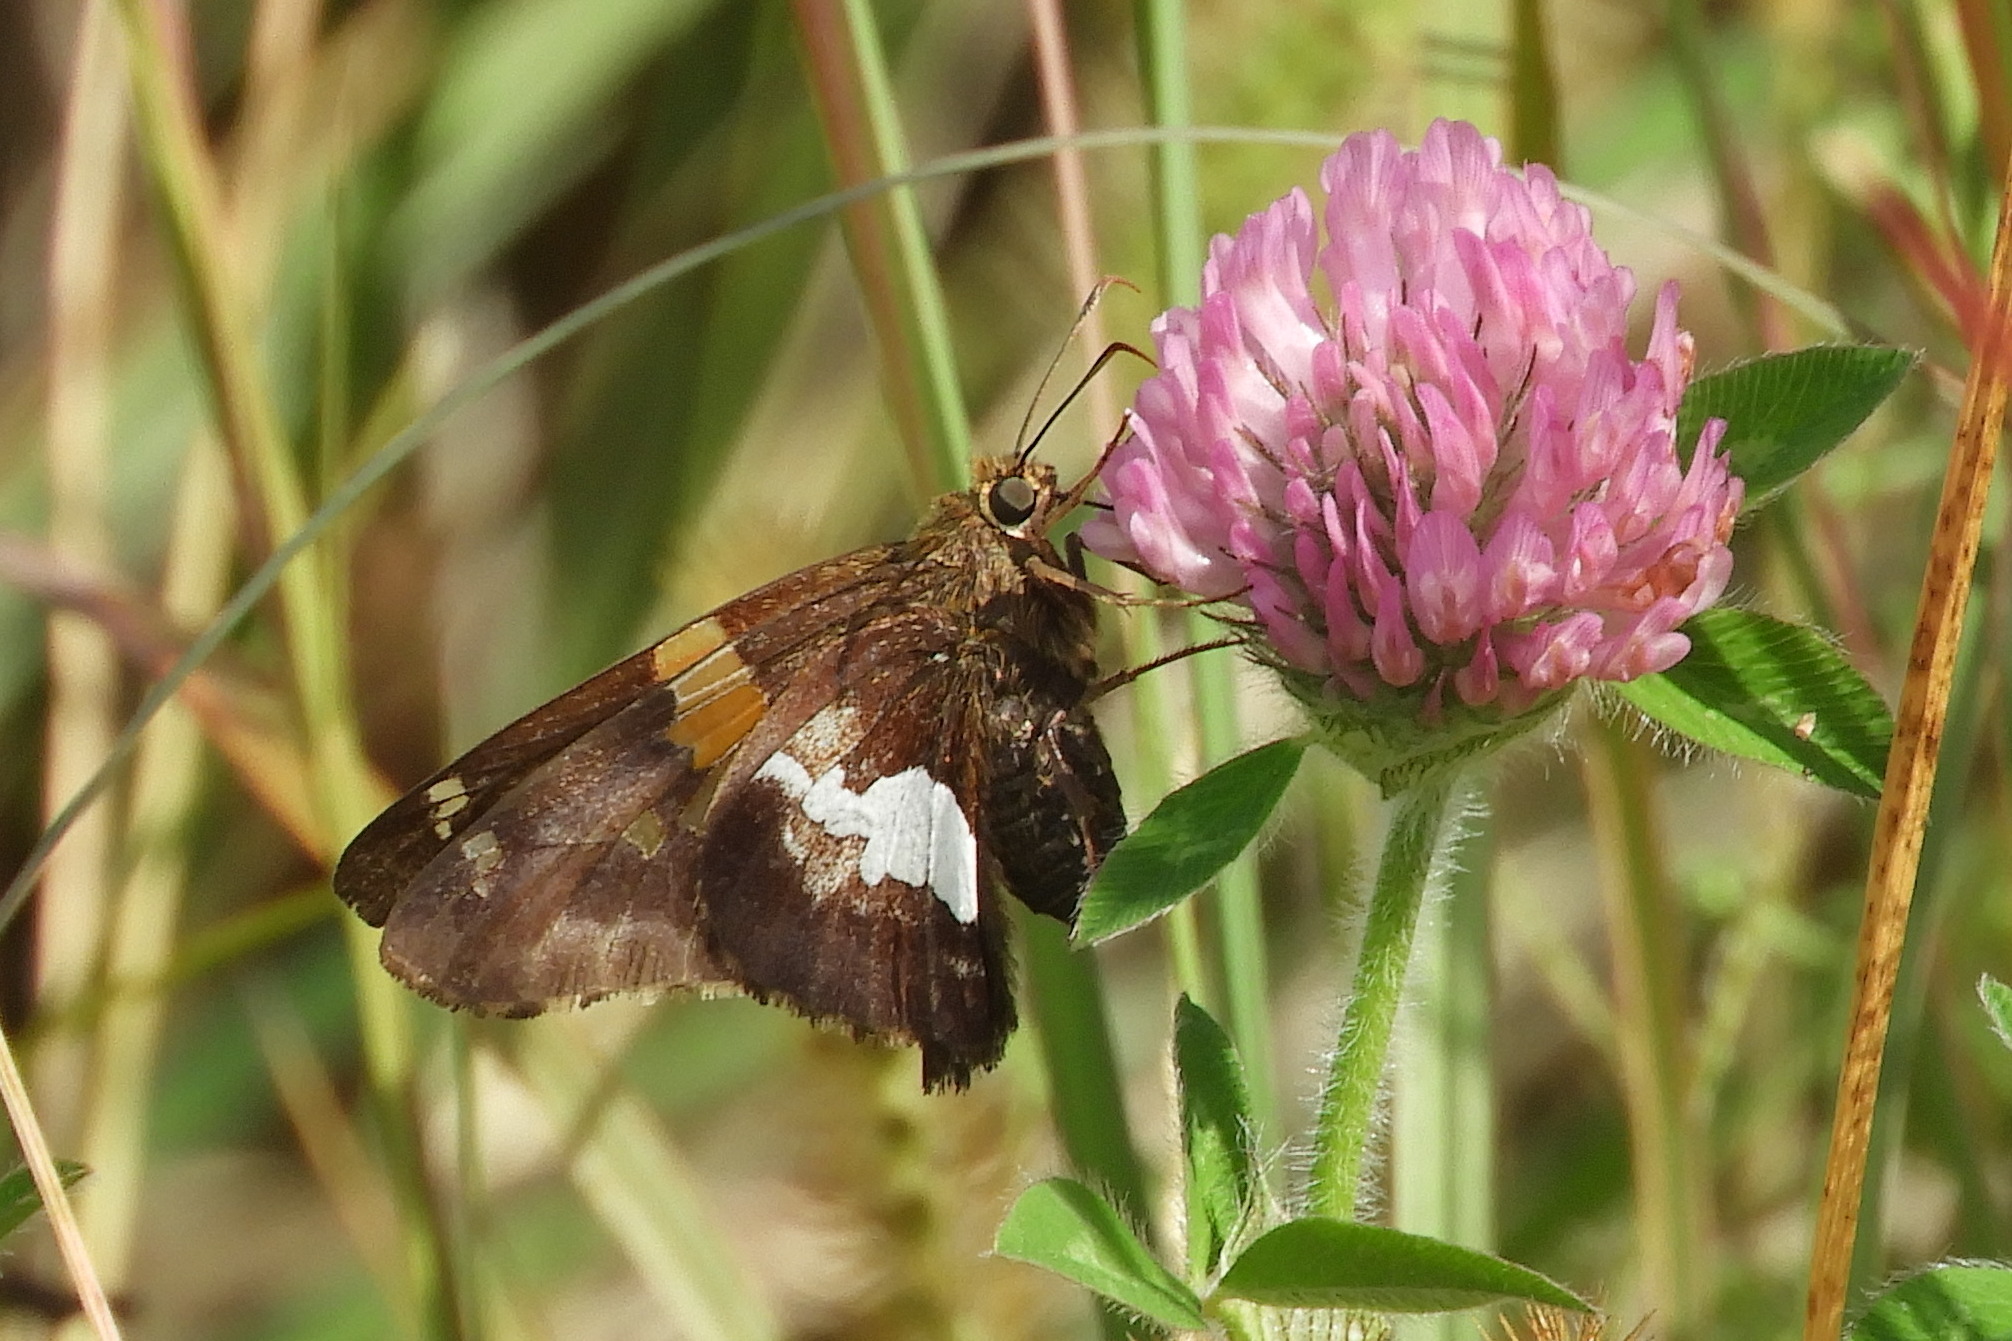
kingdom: Animalia
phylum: Arthropoda
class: Insecta
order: Lepidoptera
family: Hesperiidae
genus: Epargyreus
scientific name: Epargyreus clarus
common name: Silver-spotted skipper
